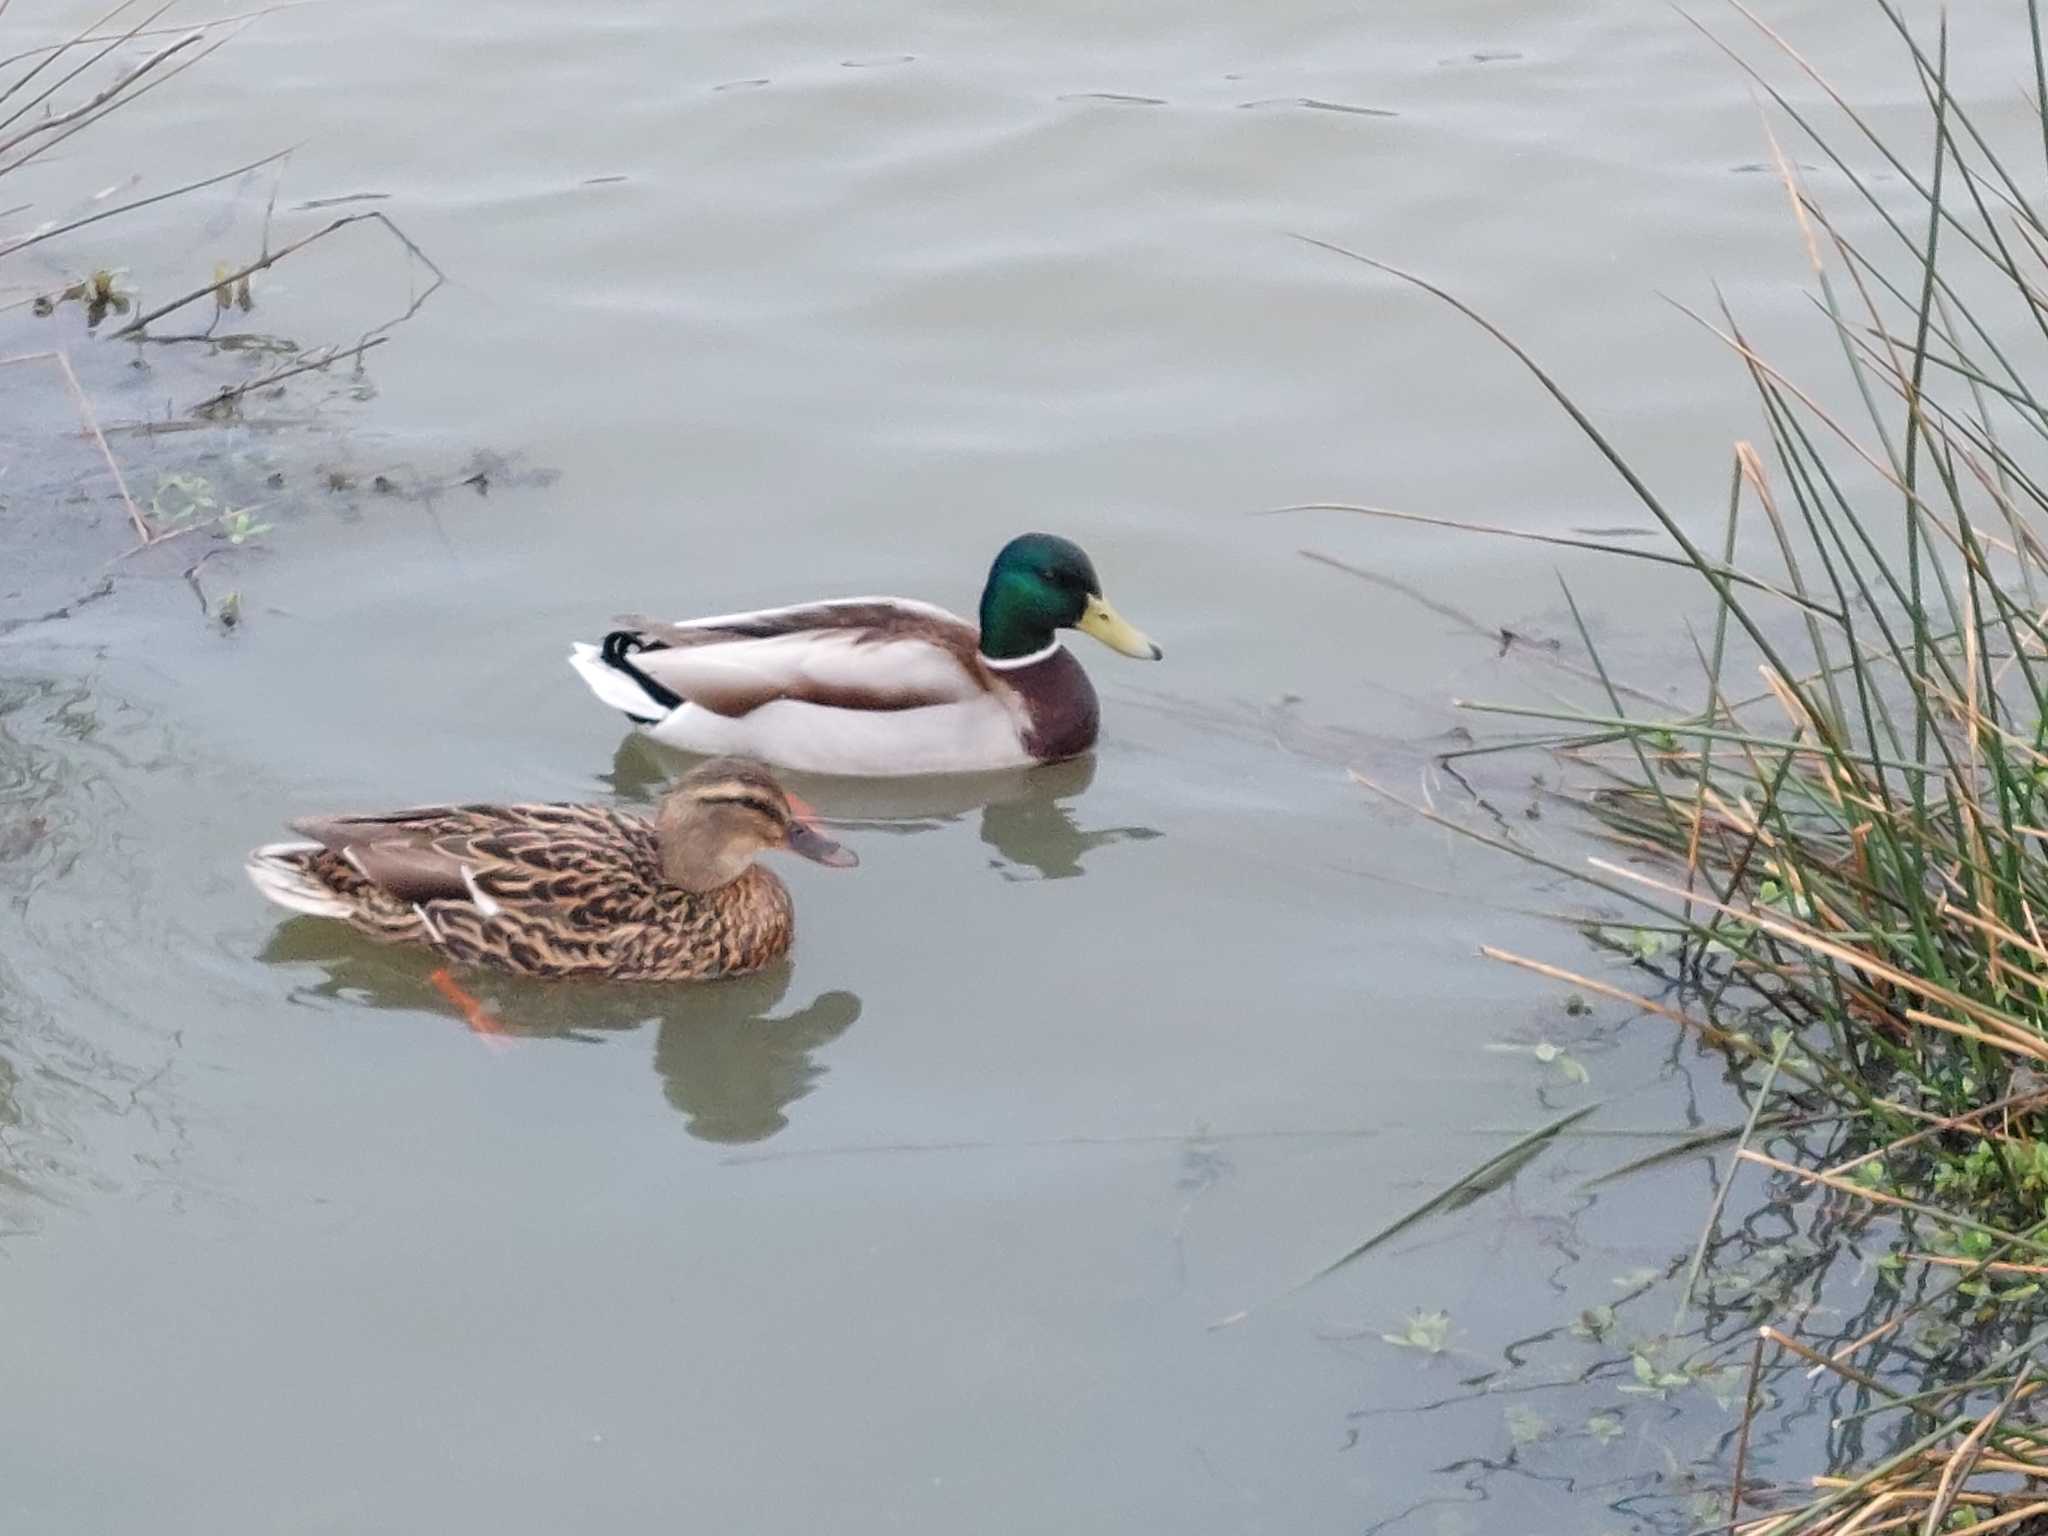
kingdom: Animalia
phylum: Chordata
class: Aves
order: Anseriformes
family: Anatidae
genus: Anas
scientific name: Anas platyrhynchos
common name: Mallard
